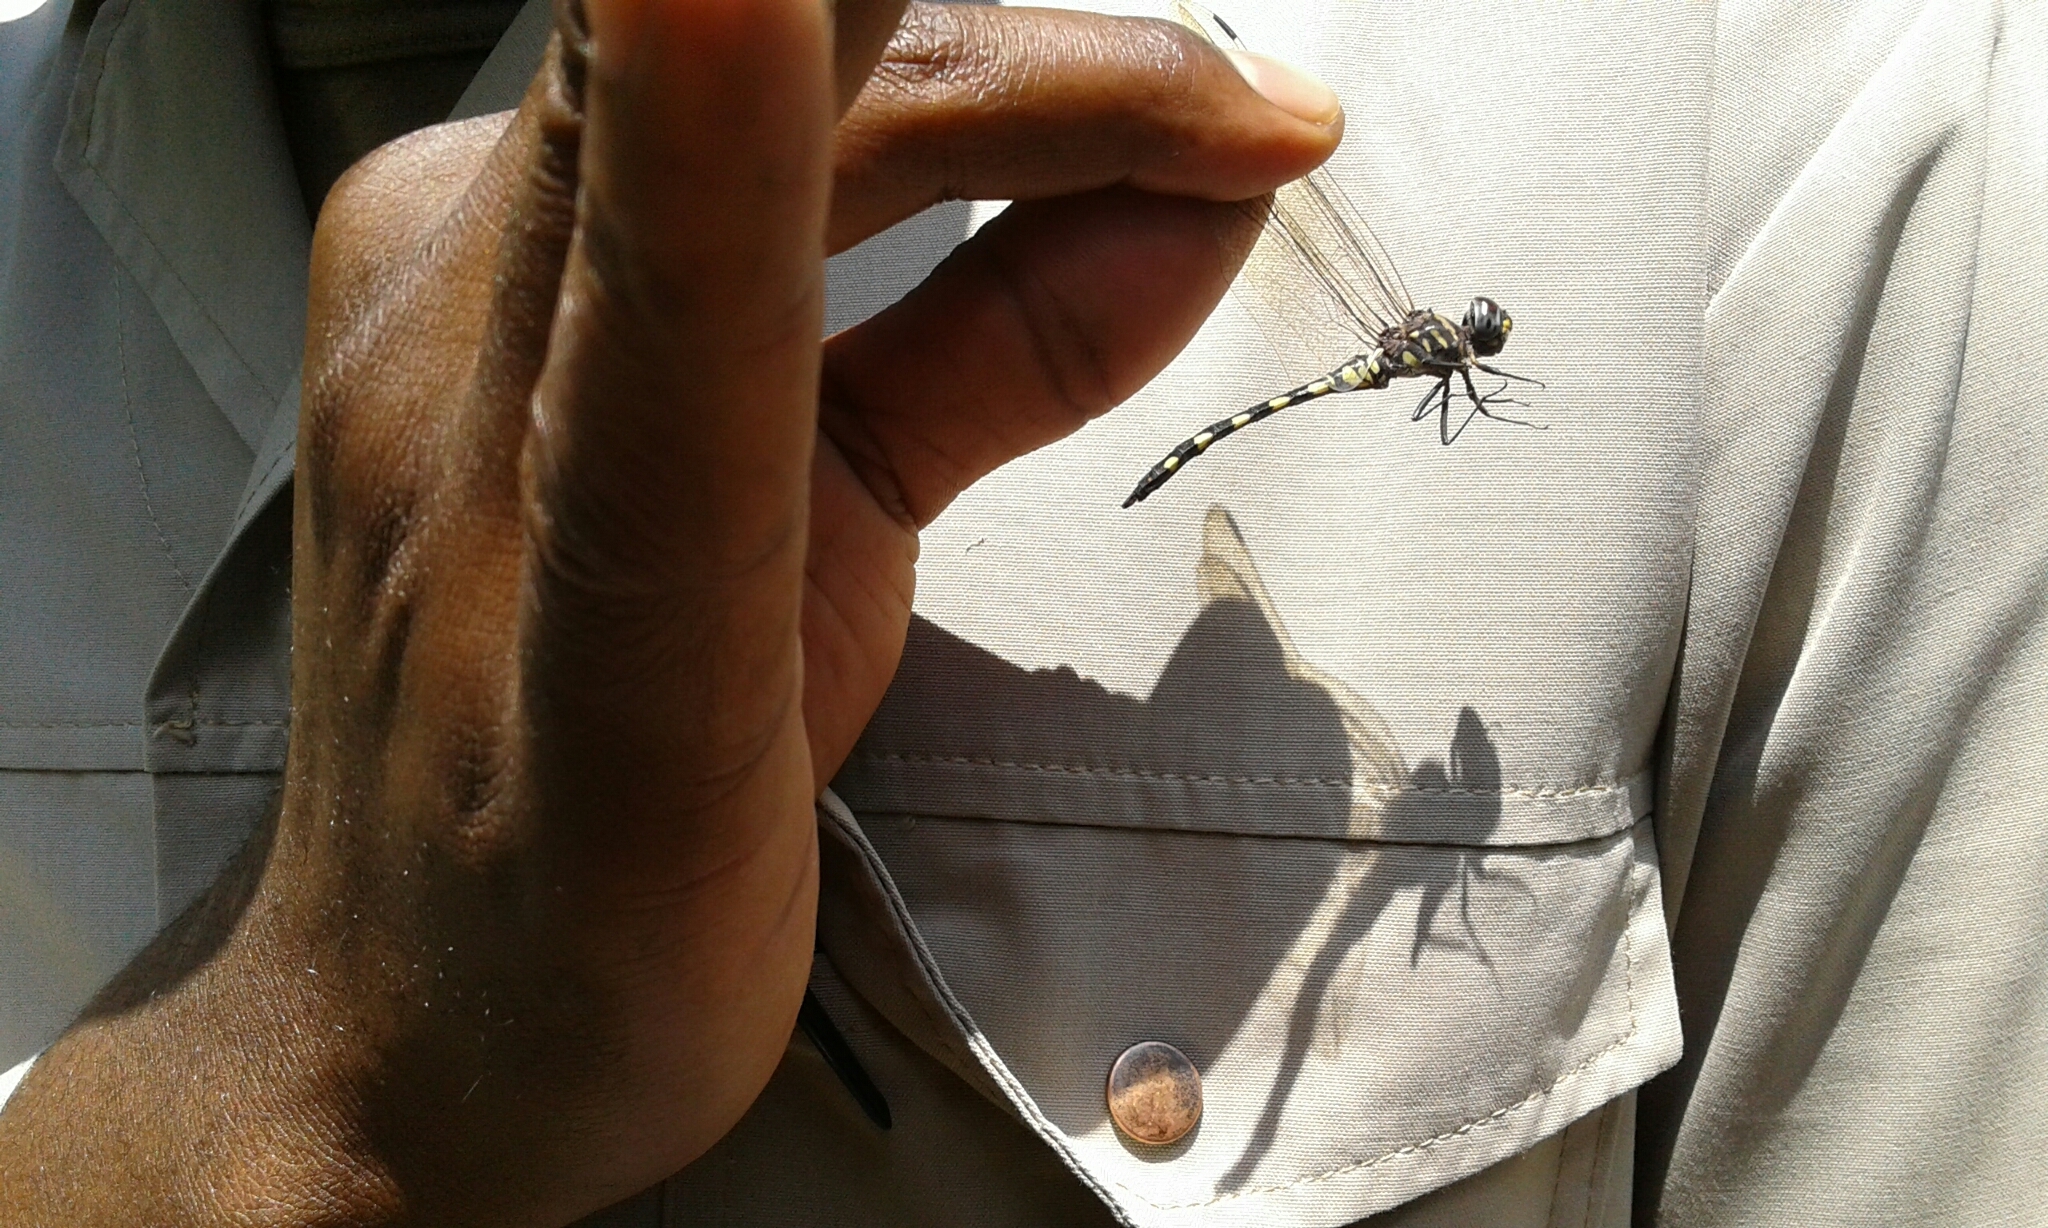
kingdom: Animalia
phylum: Arthropoda
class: Insecta
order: Odonata
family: Libellulidae
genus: Zygonyx
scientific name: Zygonyx torridus
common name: Ringed cascader
